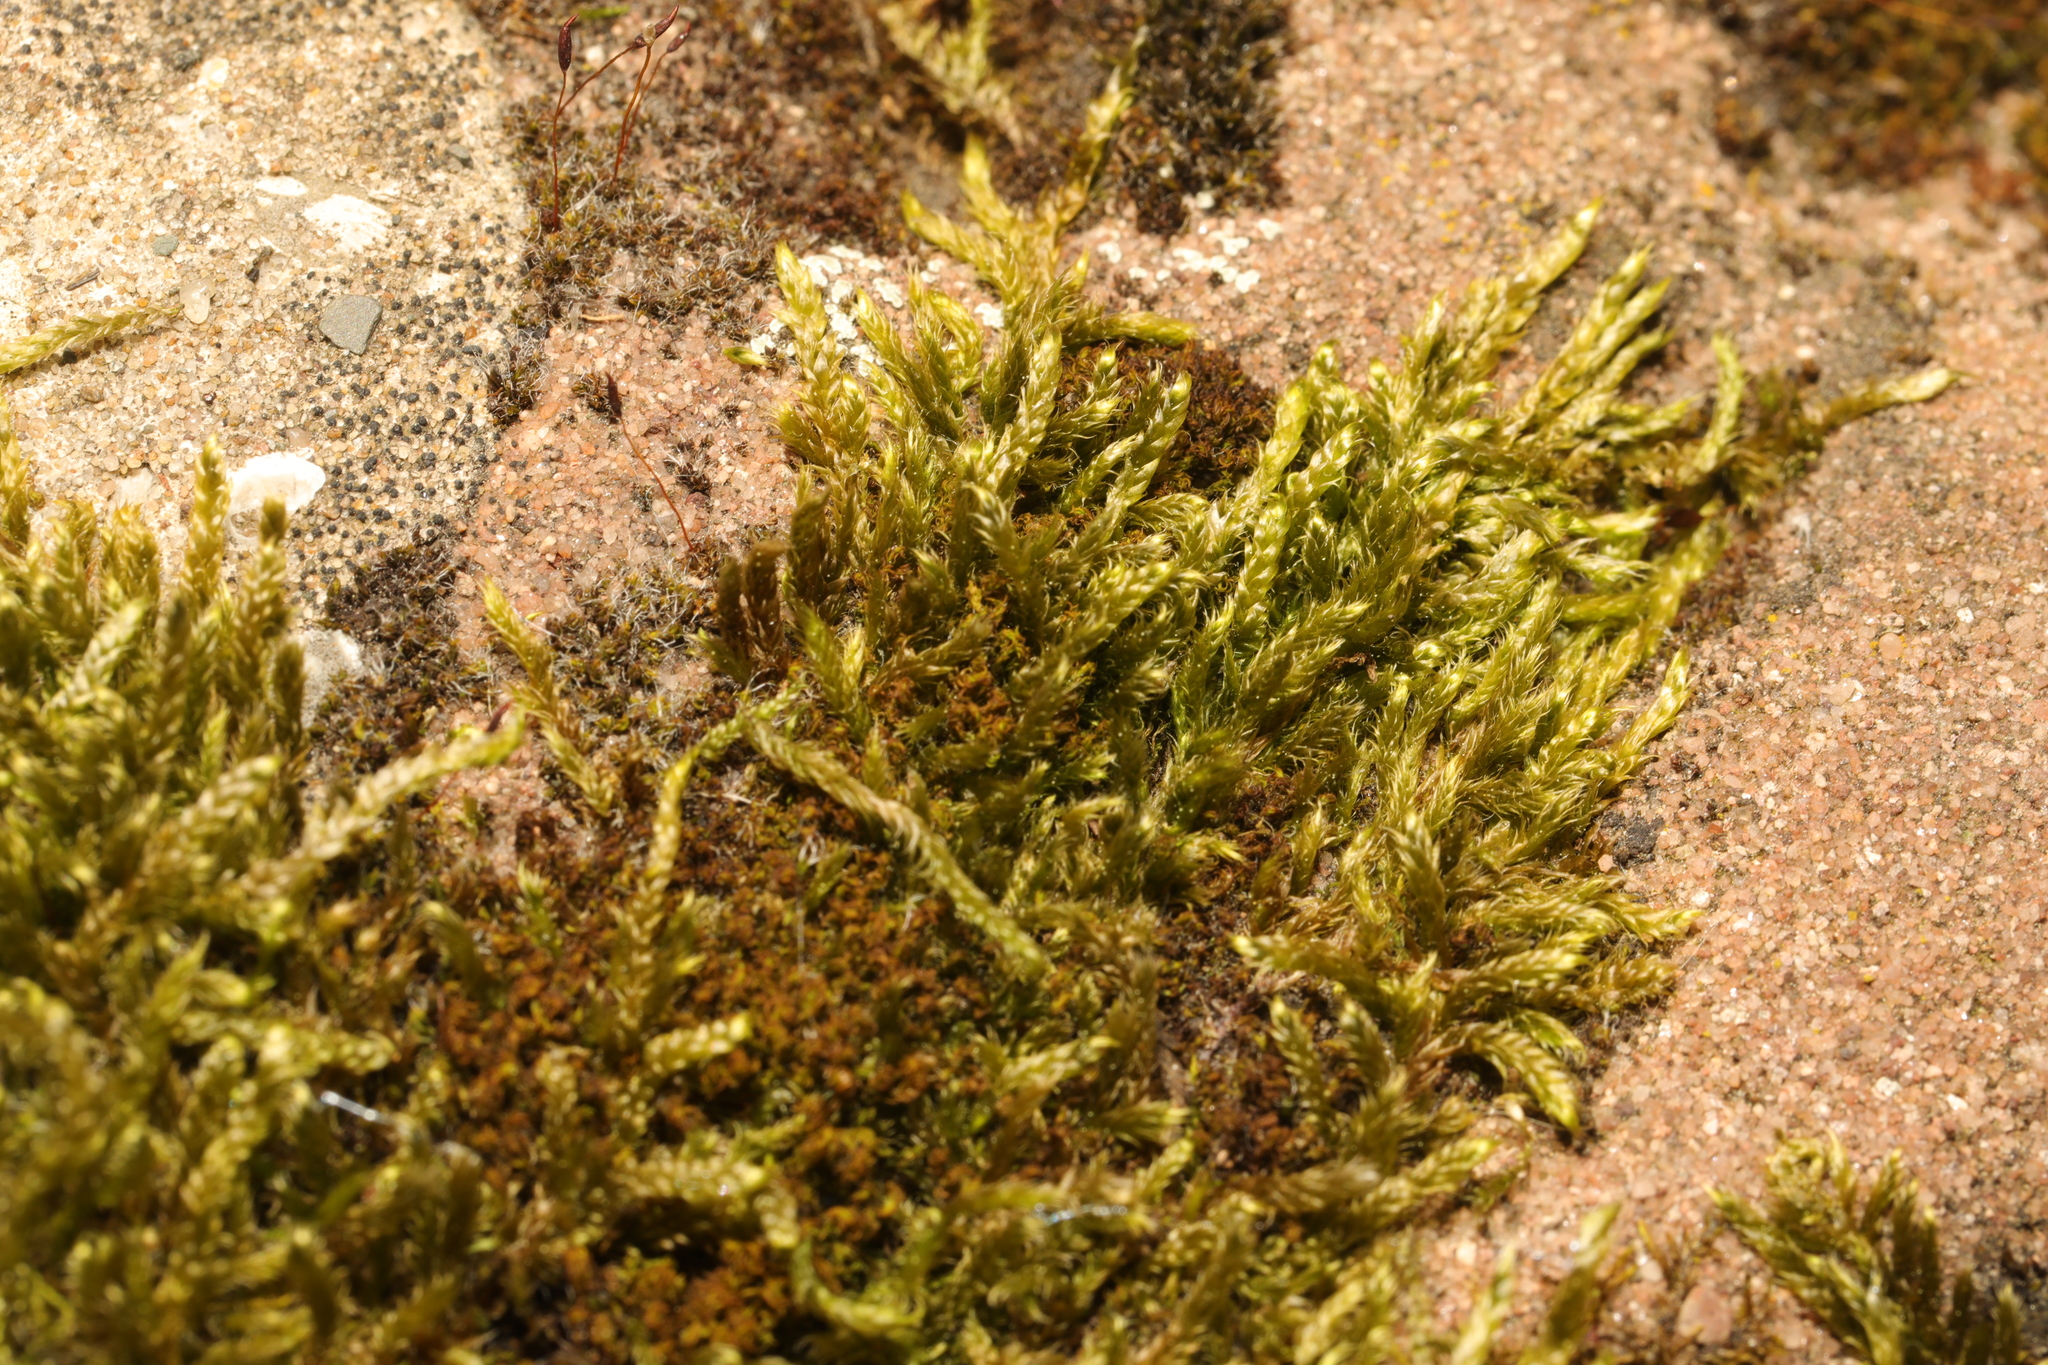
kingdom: Plantae
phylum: Bryophyta
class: Bryopsida
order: Hypnales
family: Hypnaceae
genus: Hypnum
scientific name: Hypnum cupressiforme
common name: Cypress-leaved plait-moss
